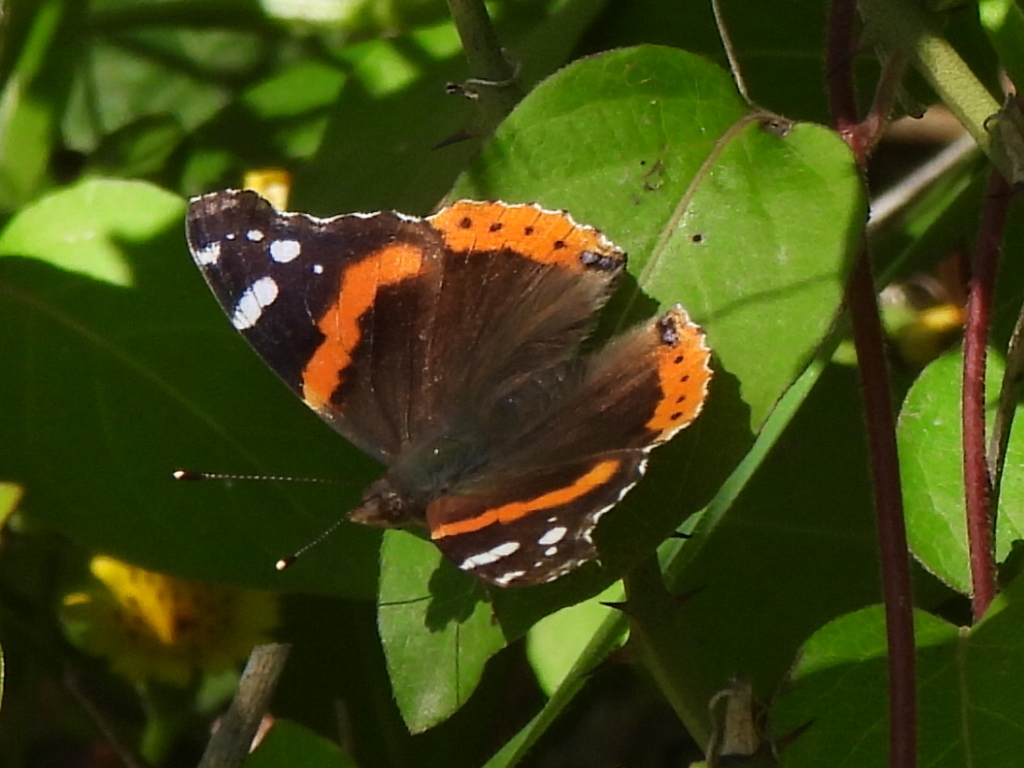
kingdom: Animalia
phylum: Arthropoda
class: Insecta
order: Lepidoptera
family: Nymphalidae
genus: Vanessa
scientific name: Vanessa atalanta
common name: Red admiral
